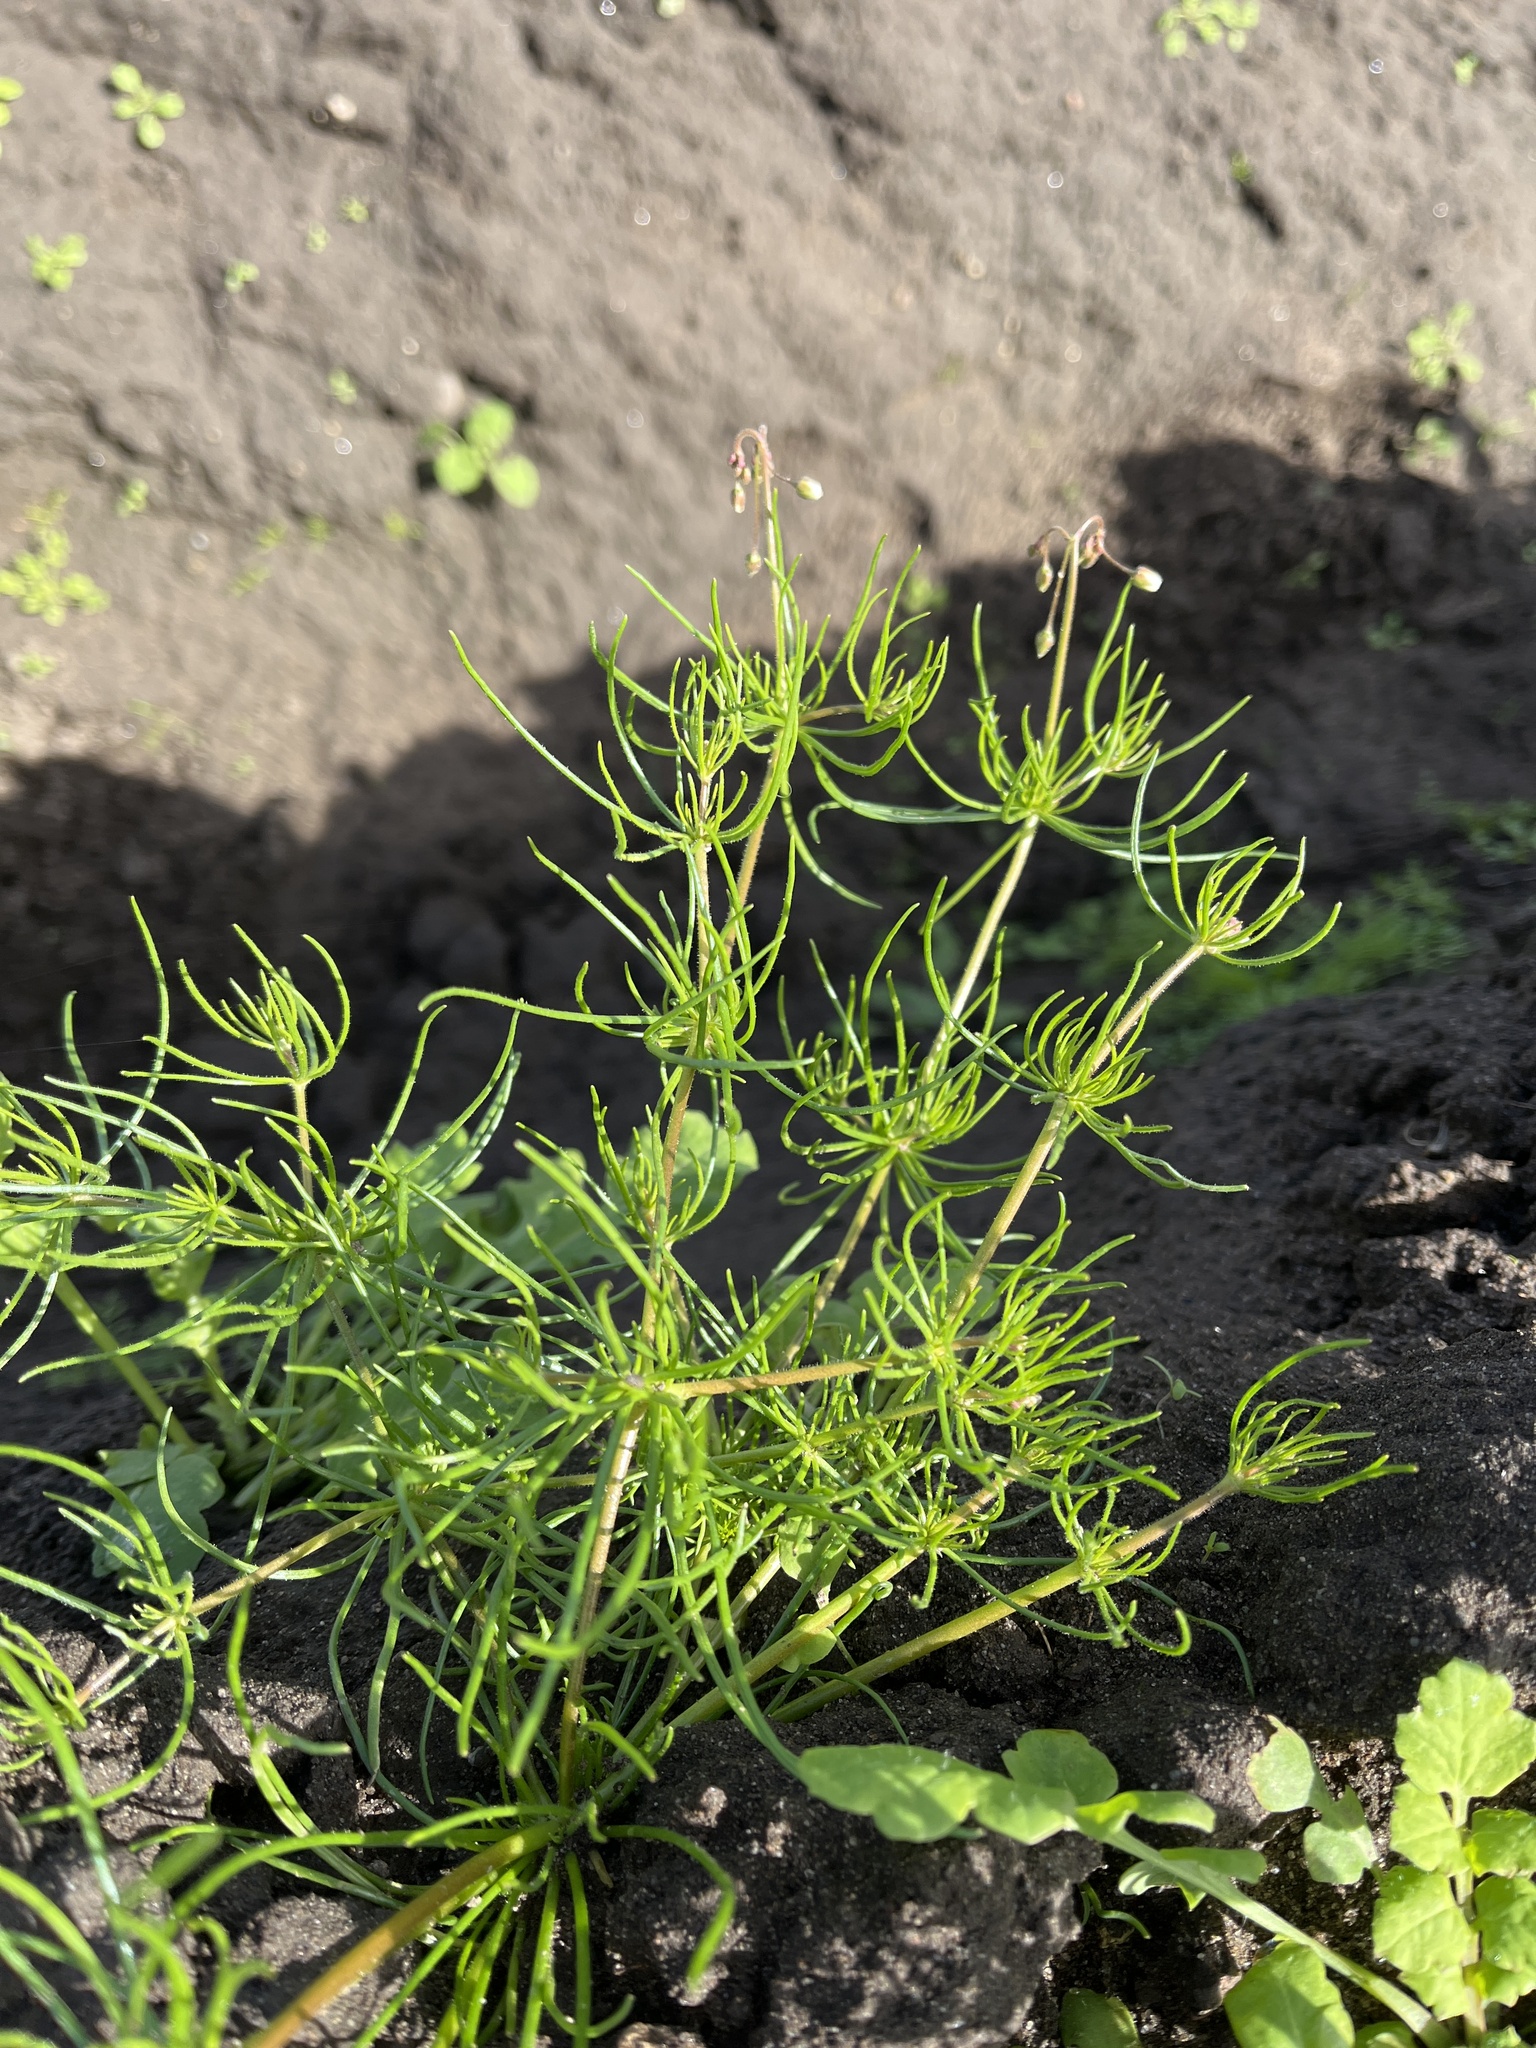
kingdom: Plantae
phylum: Tracheophyta
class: Magnoliopsida
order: Caryophyllales
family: Caryophyllaceae
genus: Spergula
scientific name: Spergula arvensis
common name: Corn spurrey
